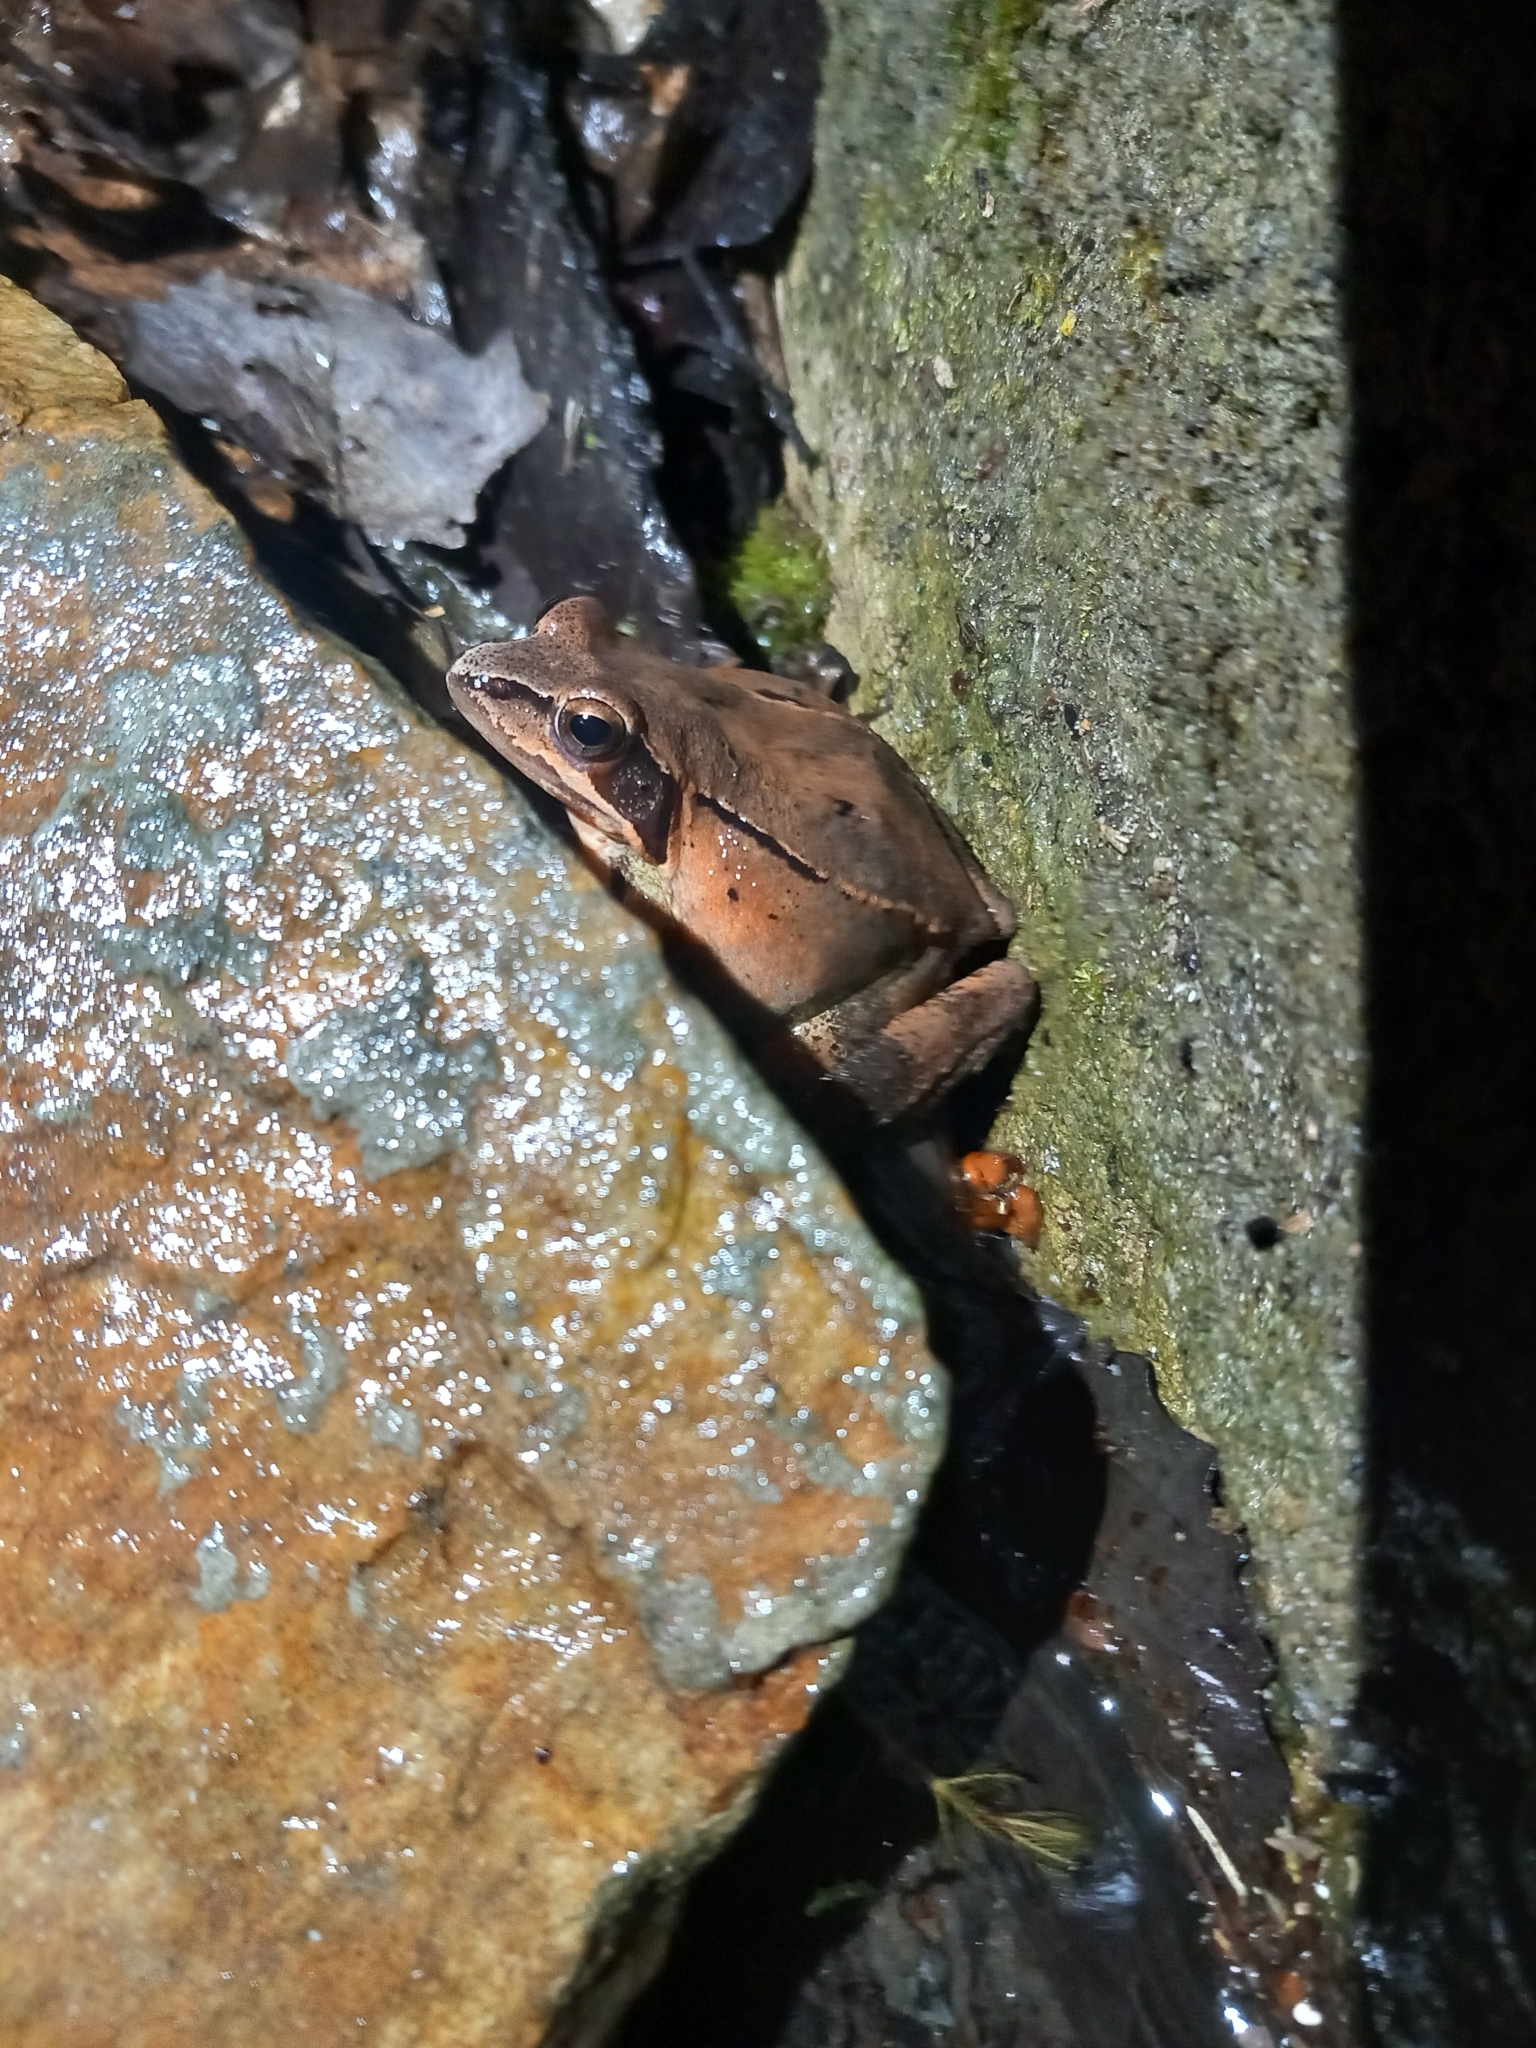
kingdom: Animalia
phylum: Chordata
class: Amphibia
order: Anura
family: Ranidae
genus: Rana
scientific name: Rana dalmatina
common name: Agile frog
